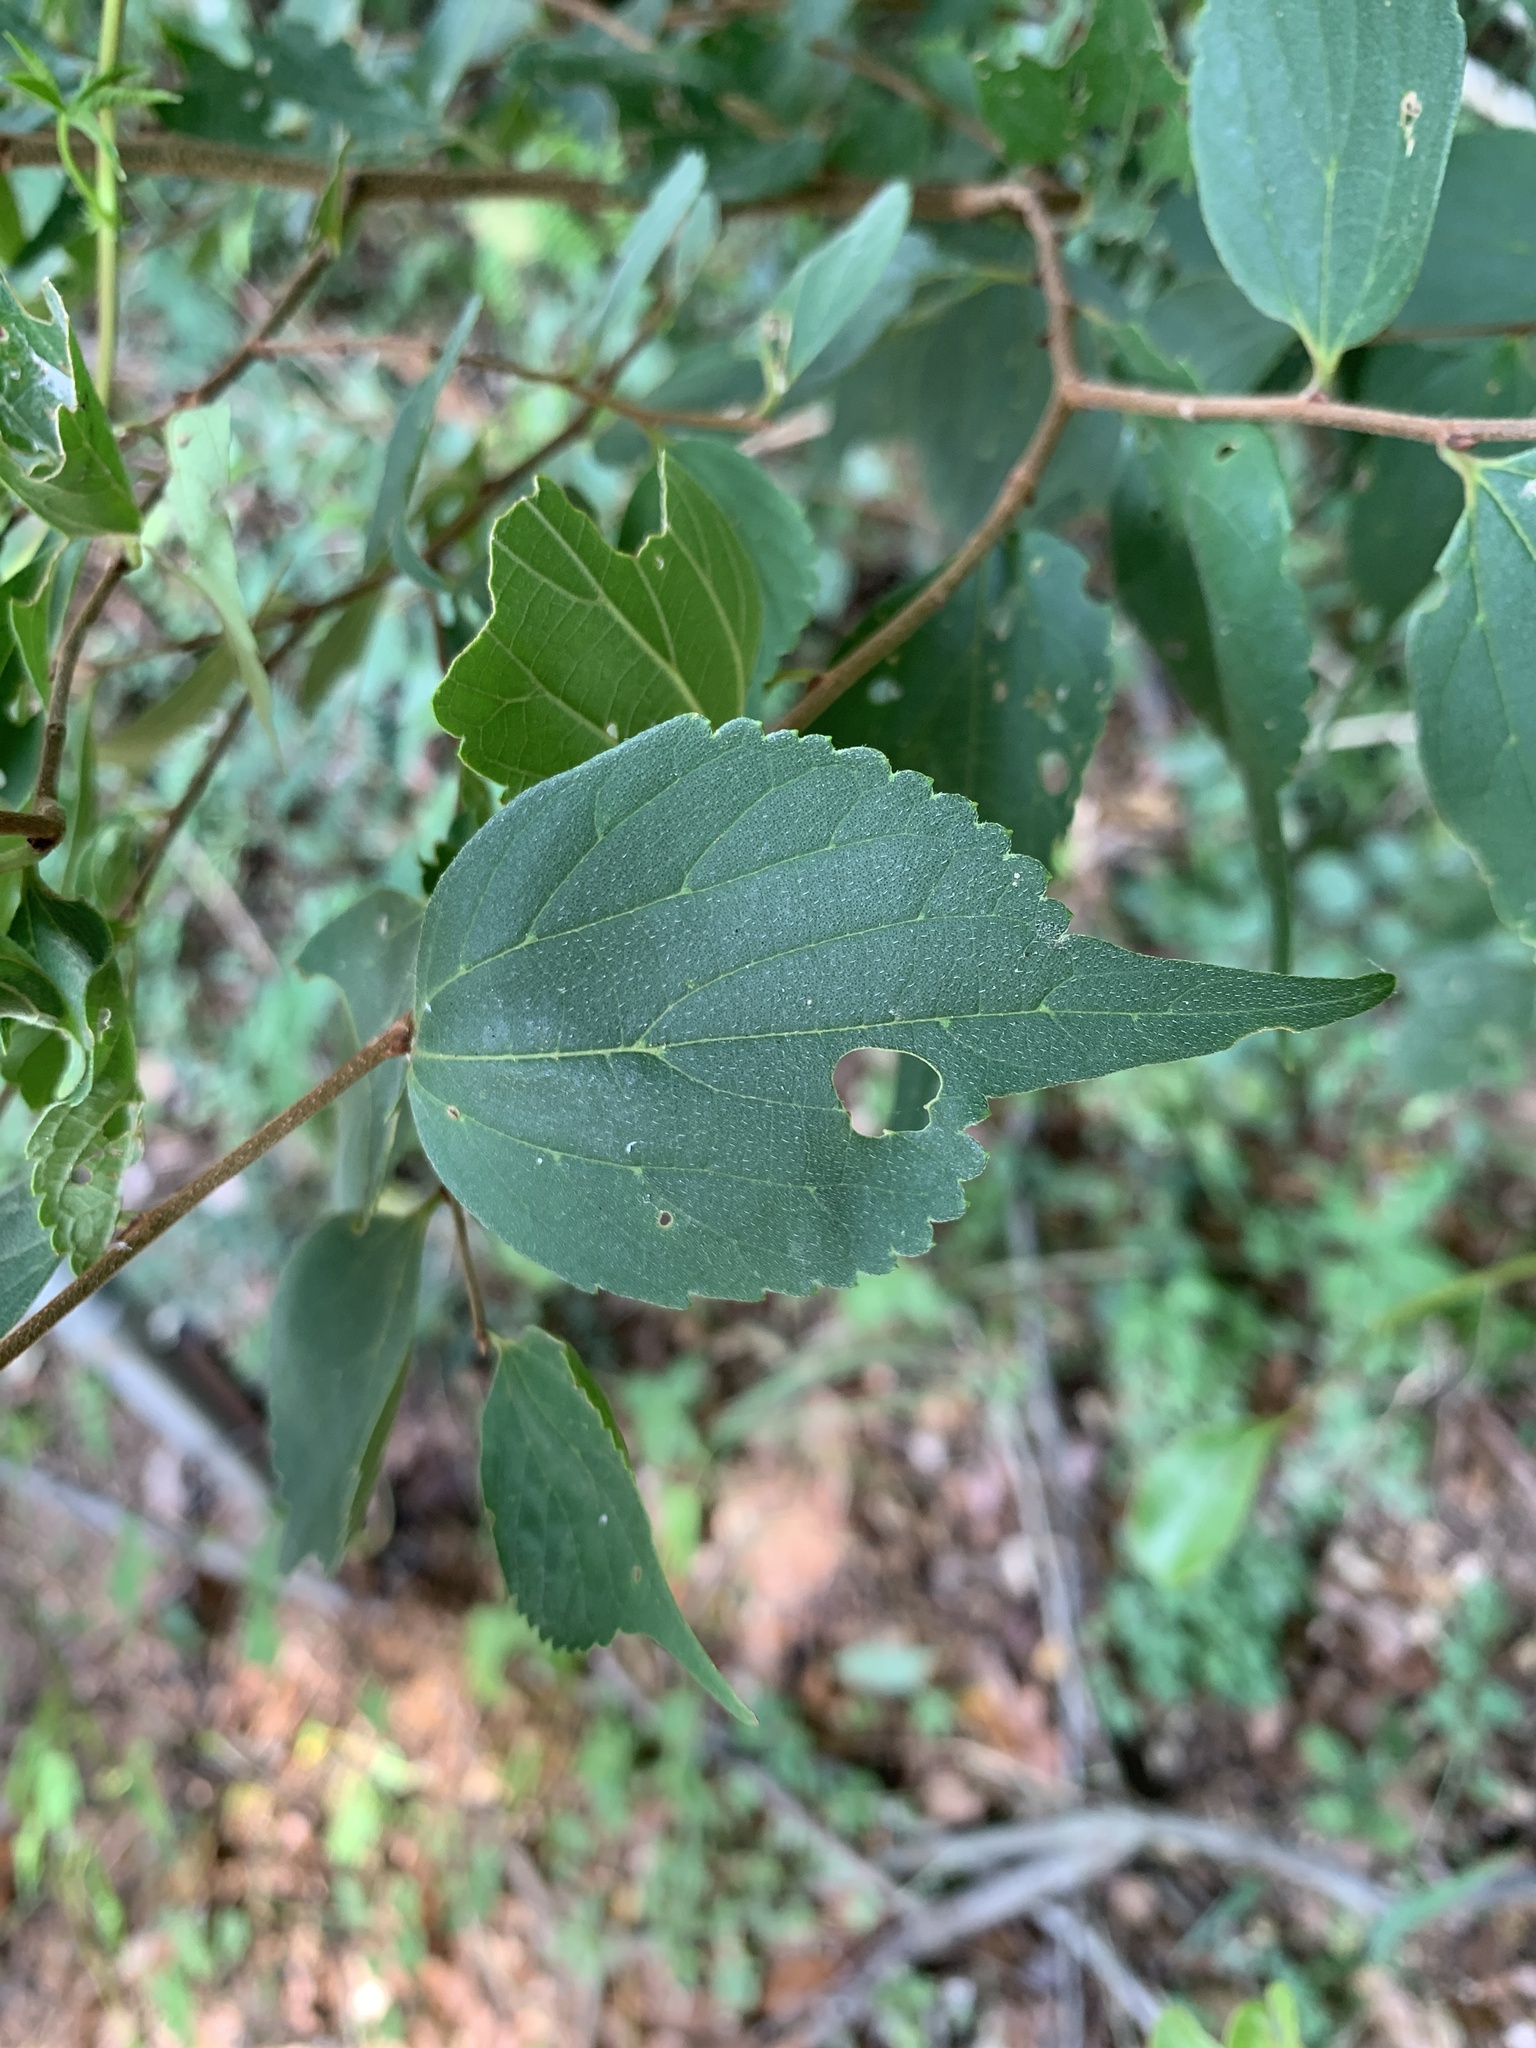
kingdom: Plantae
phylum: Tracheophyta
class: Magnoliopsida
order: Rosales
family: Cannabaceae
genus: Celtis
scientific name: Celtis biondii
